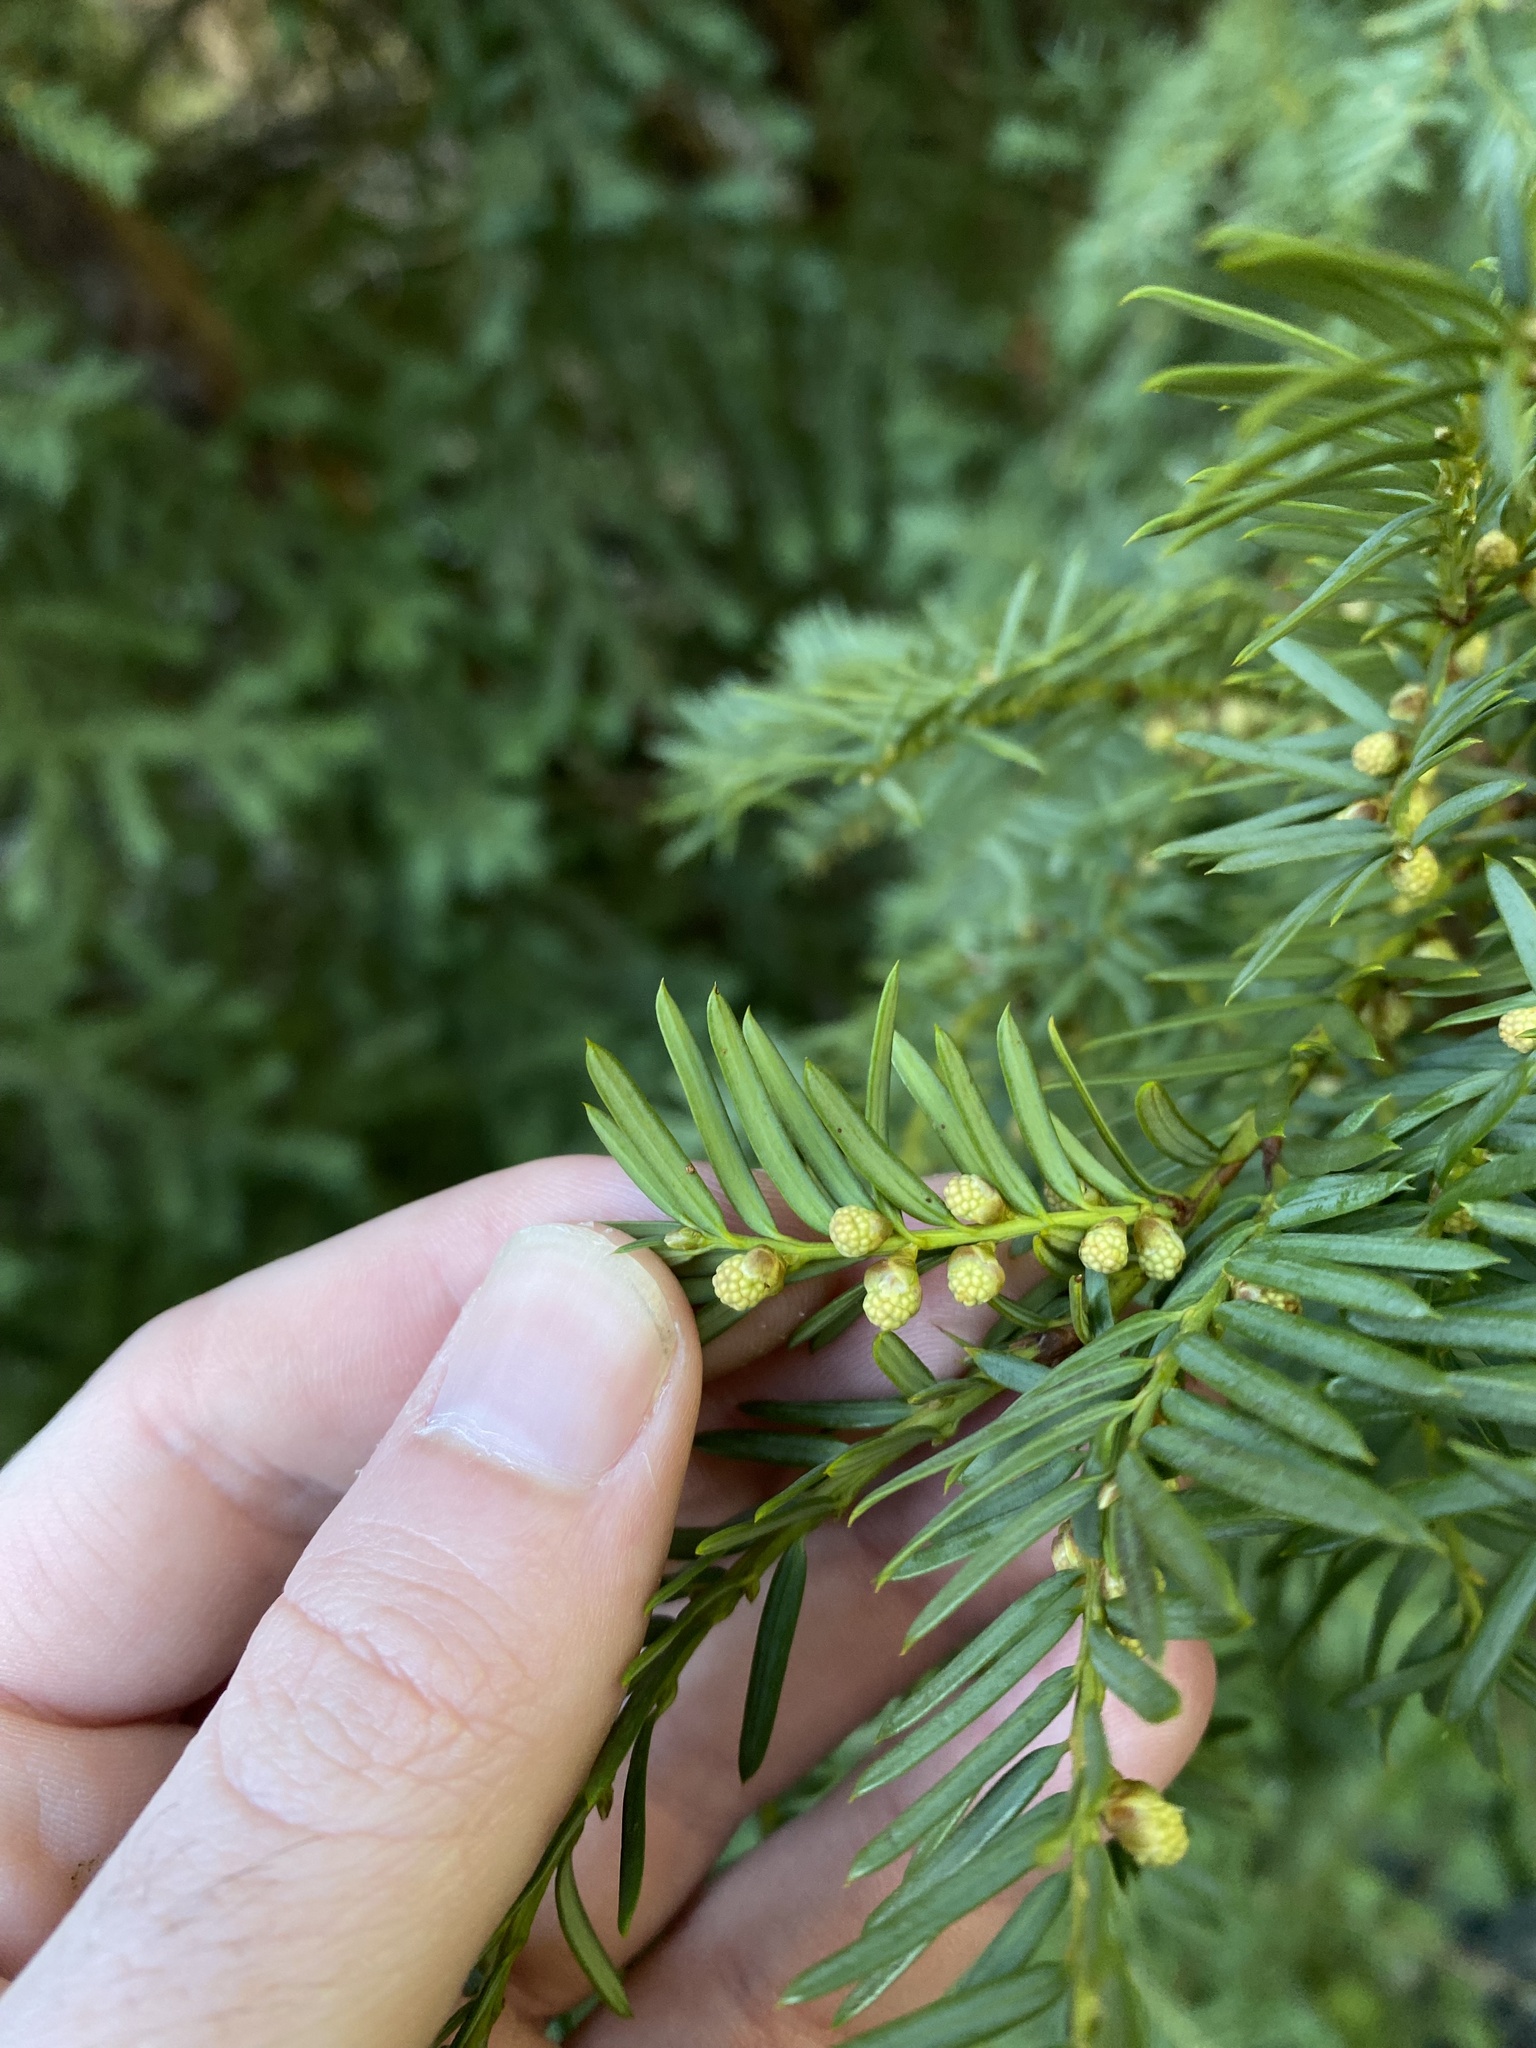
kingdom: Plantae
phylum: Tracheophyta
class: Pinopsida
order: Pinales
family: Taxaceae
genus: Taxus
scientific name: Taxus brevifolia
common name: Pacific yew
